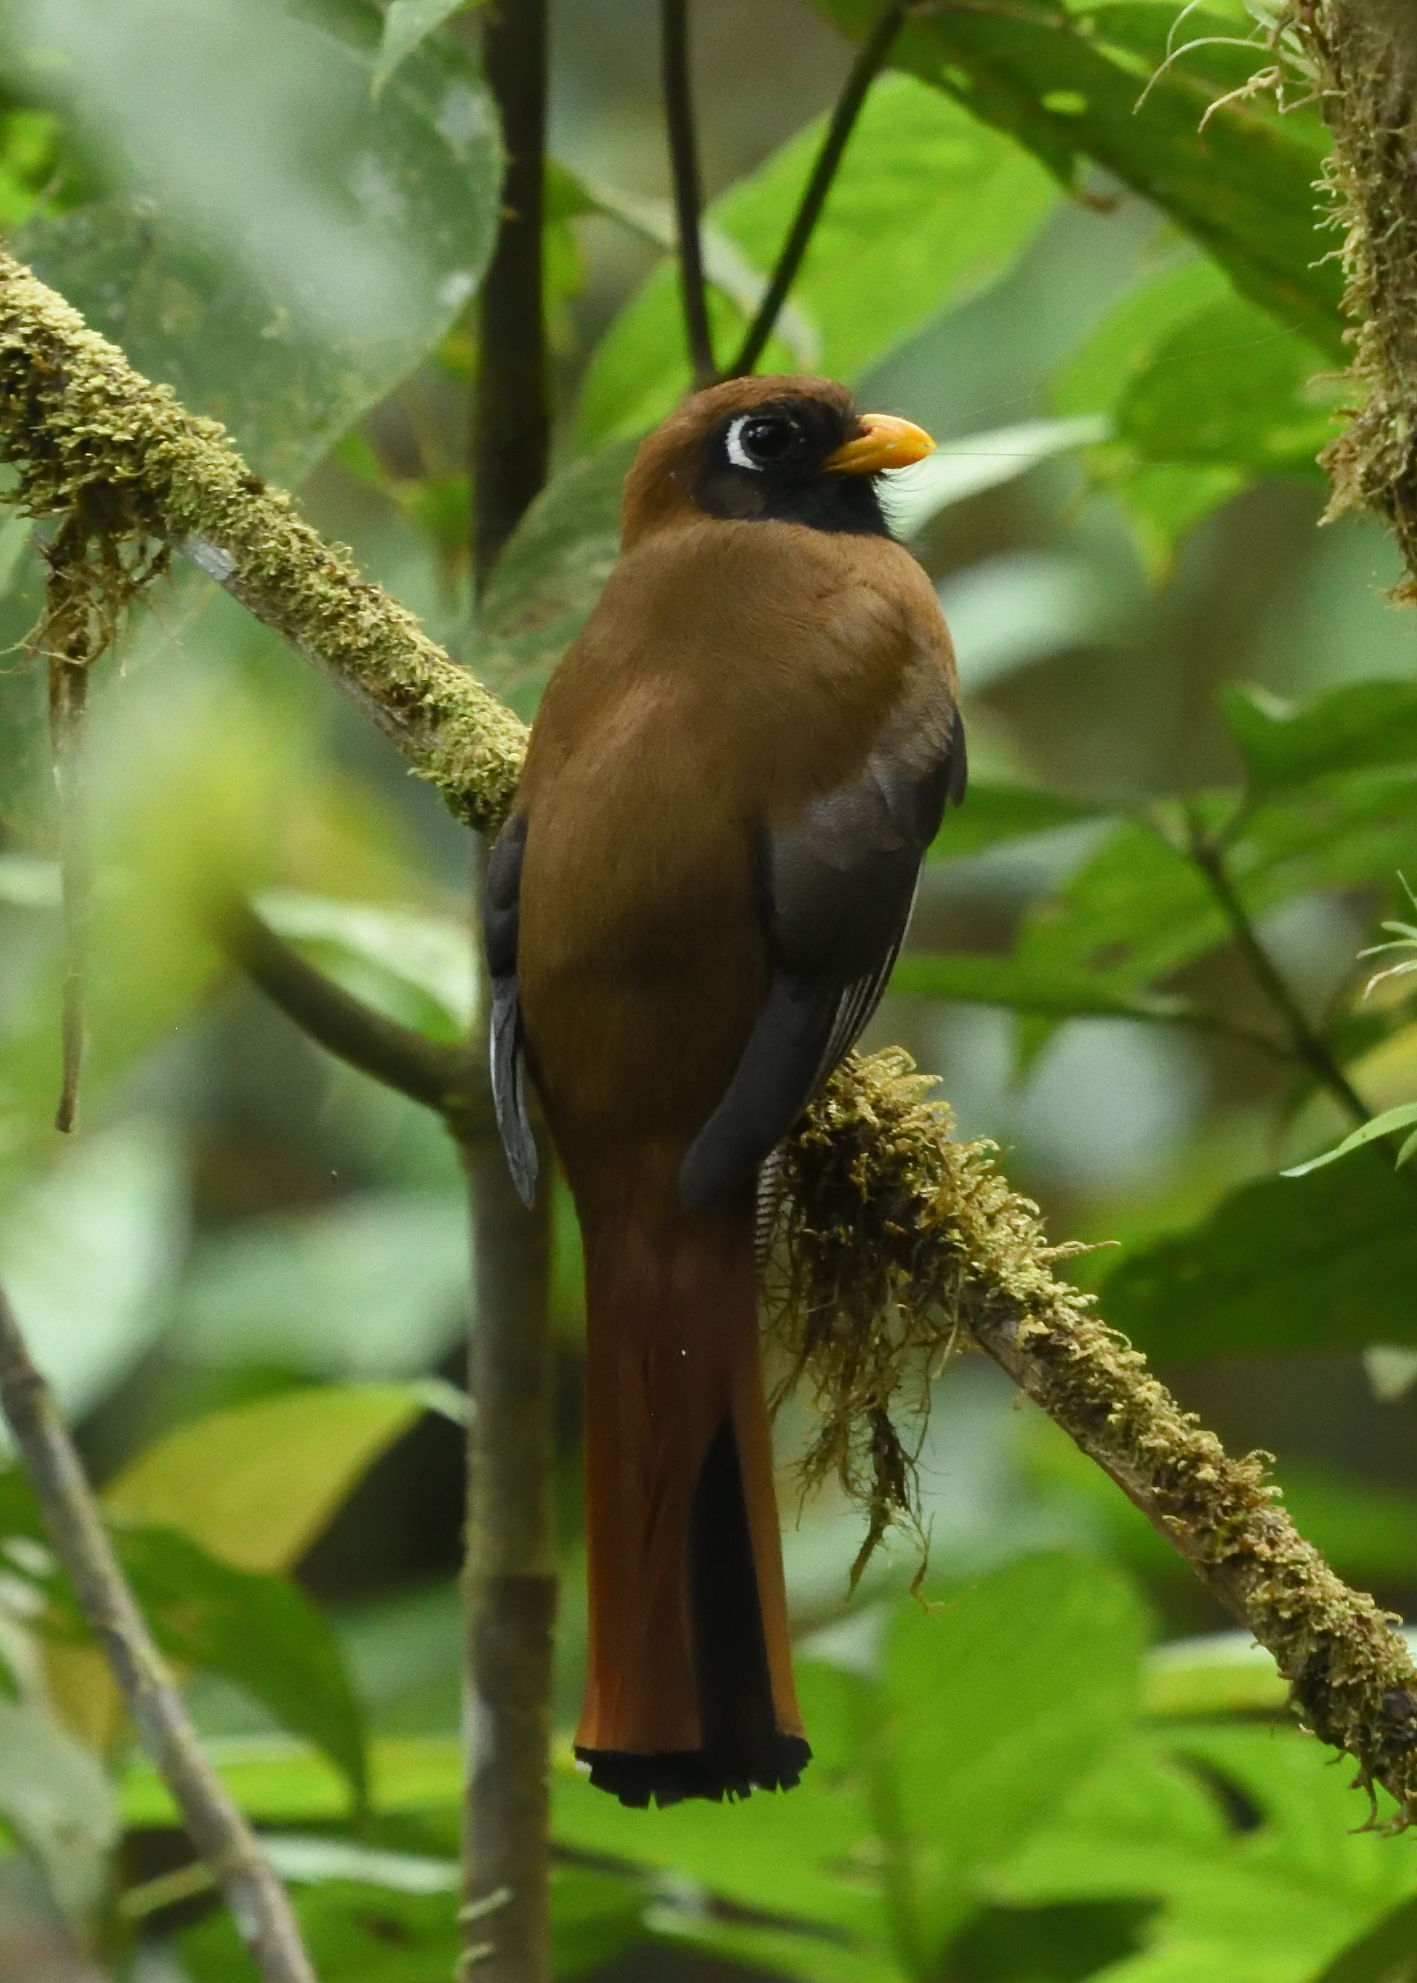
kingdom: Animalia
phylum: Chordata
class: Aves
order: Trogoniformes
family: Trogonidae
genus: Trogon
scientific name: Trogon personatus
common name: Masked trogon
